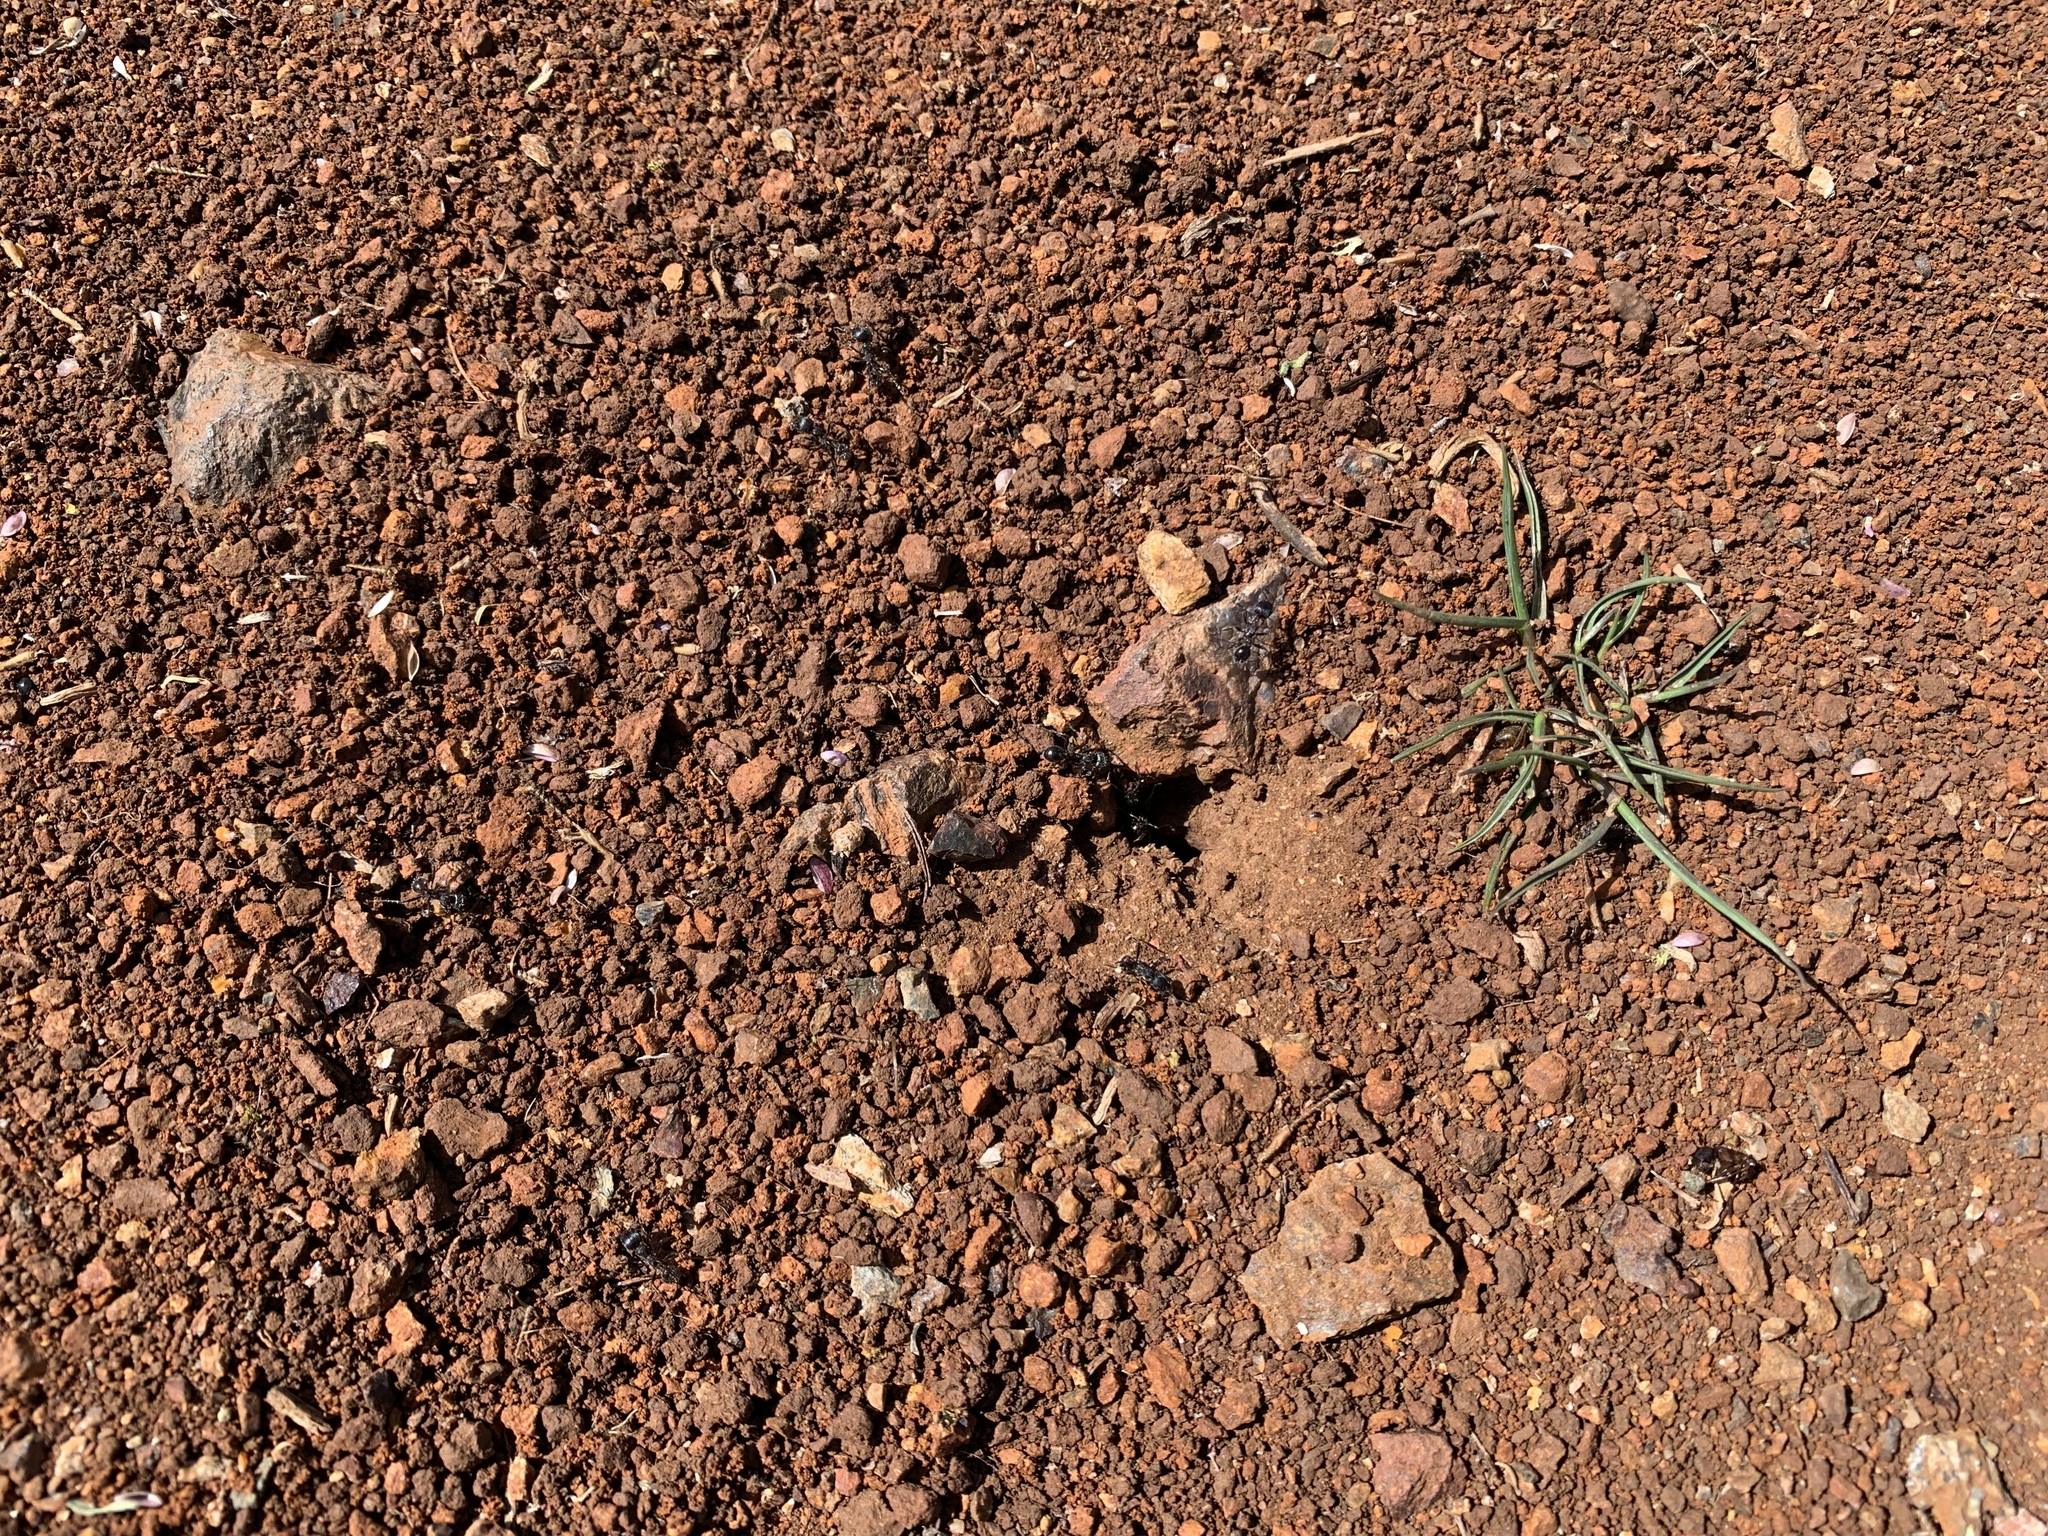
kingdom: Animalia
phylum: Arthropoda
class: Insecta
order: Hymenoptera
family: Formicidae
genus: Veromessor
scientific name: Veromessor andrei
